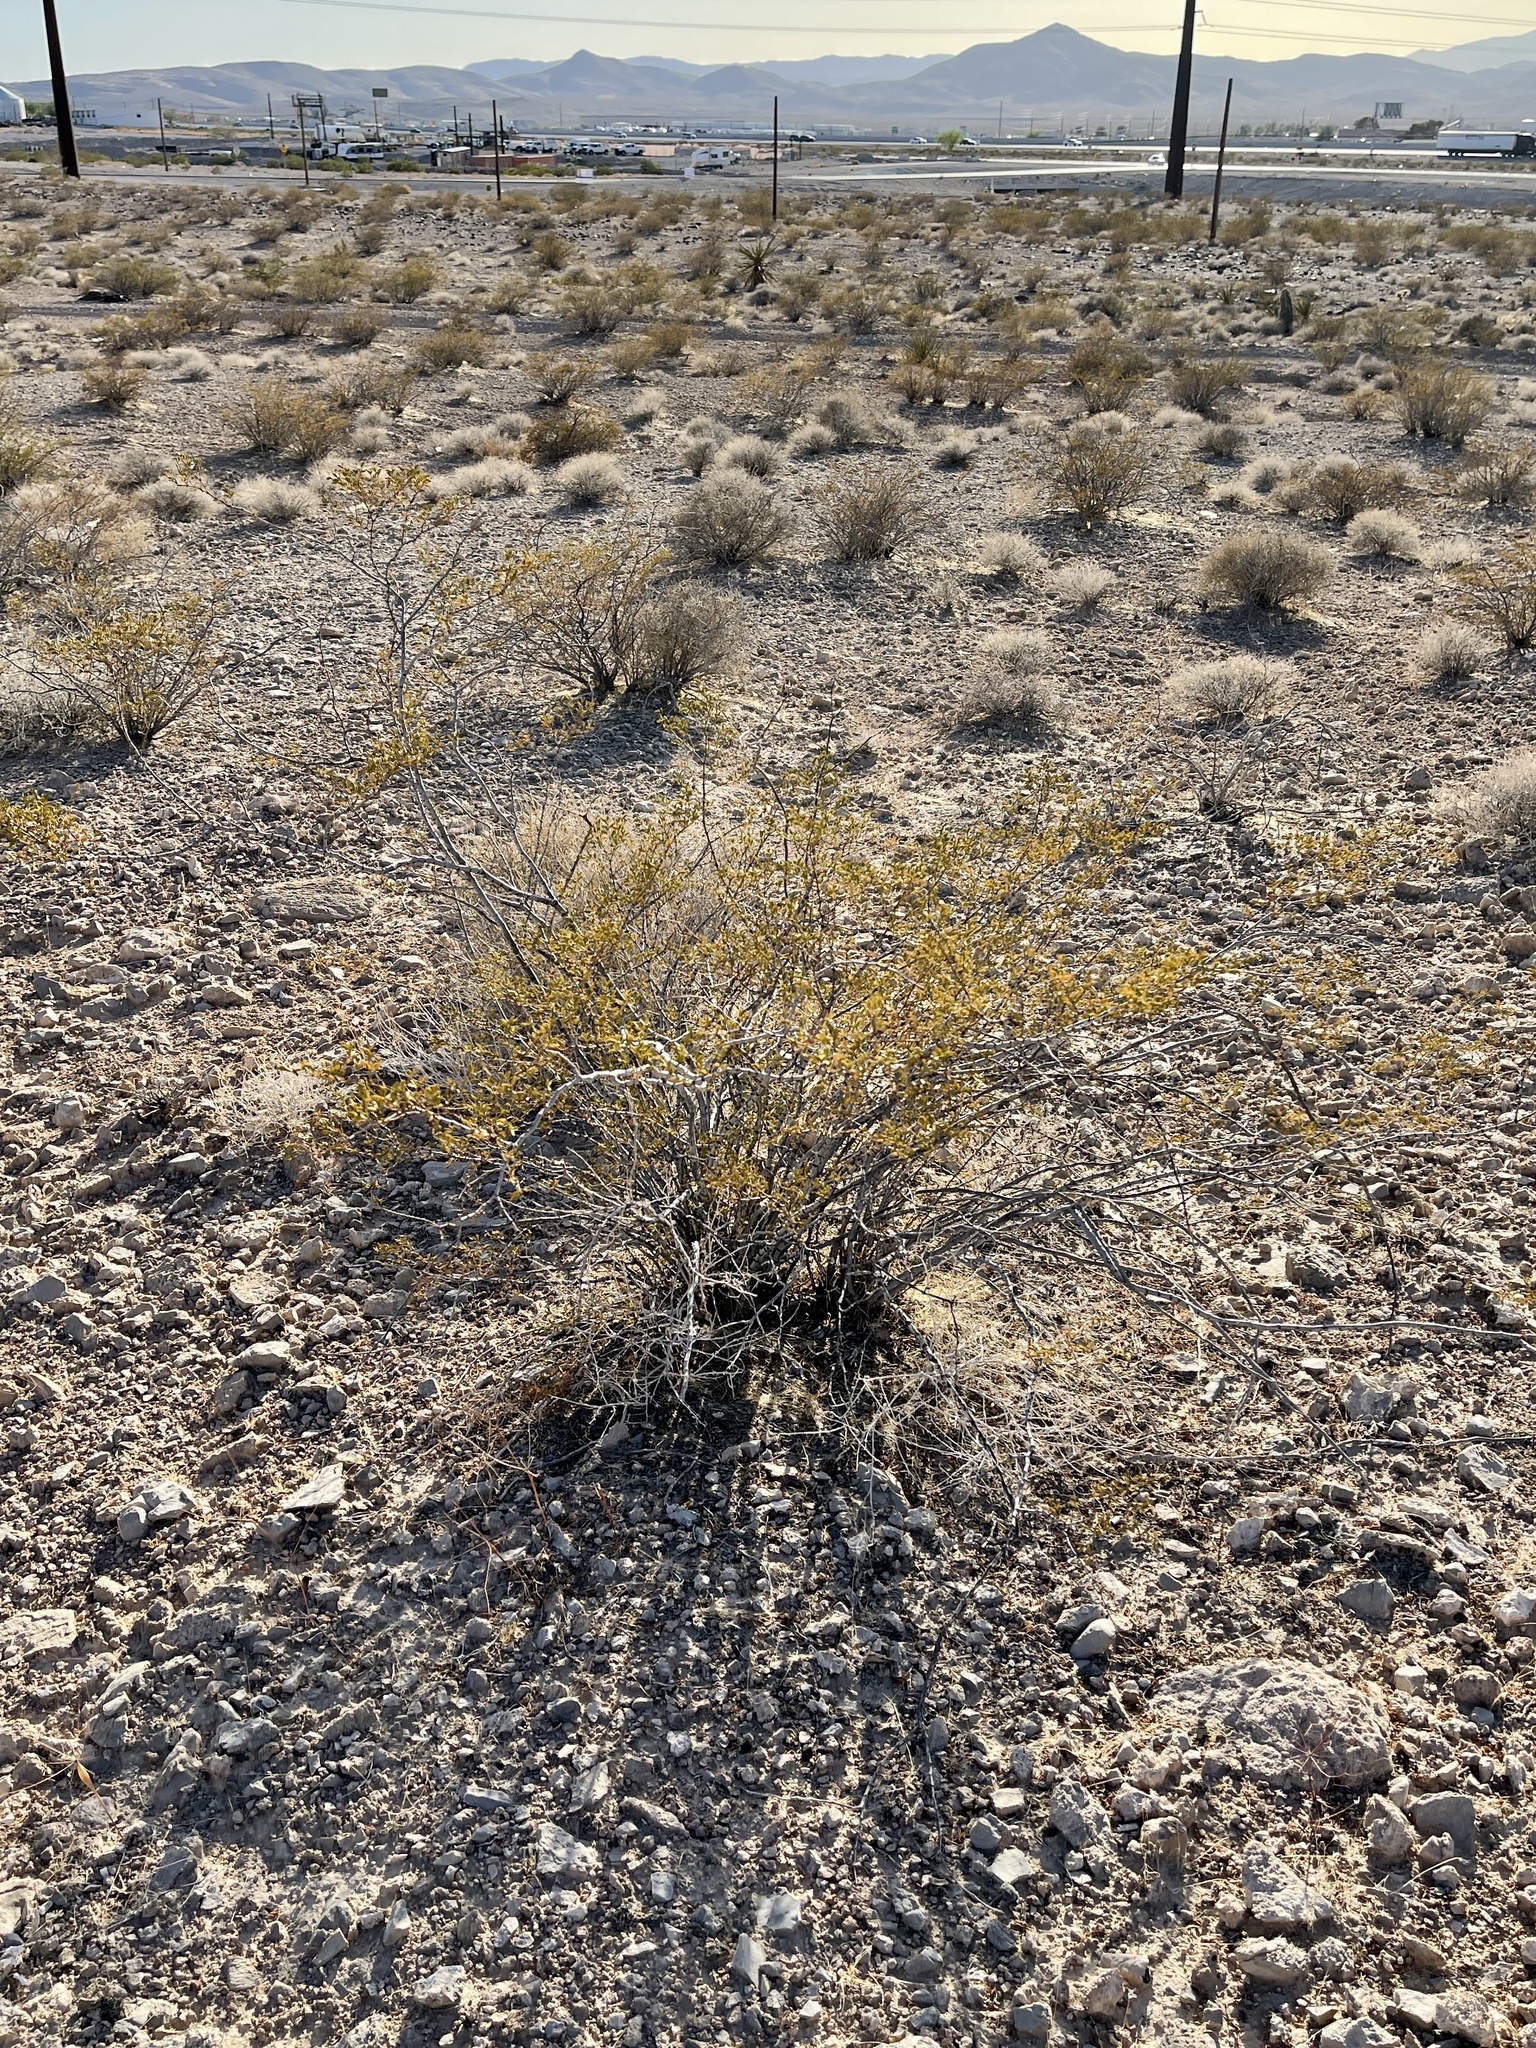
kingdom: Plantae
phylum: Tracheophyta
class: Magnoliopsida
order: Zygophyllales
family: Zygophyllaceae
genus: Larrea
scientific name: Larrea tridentata
